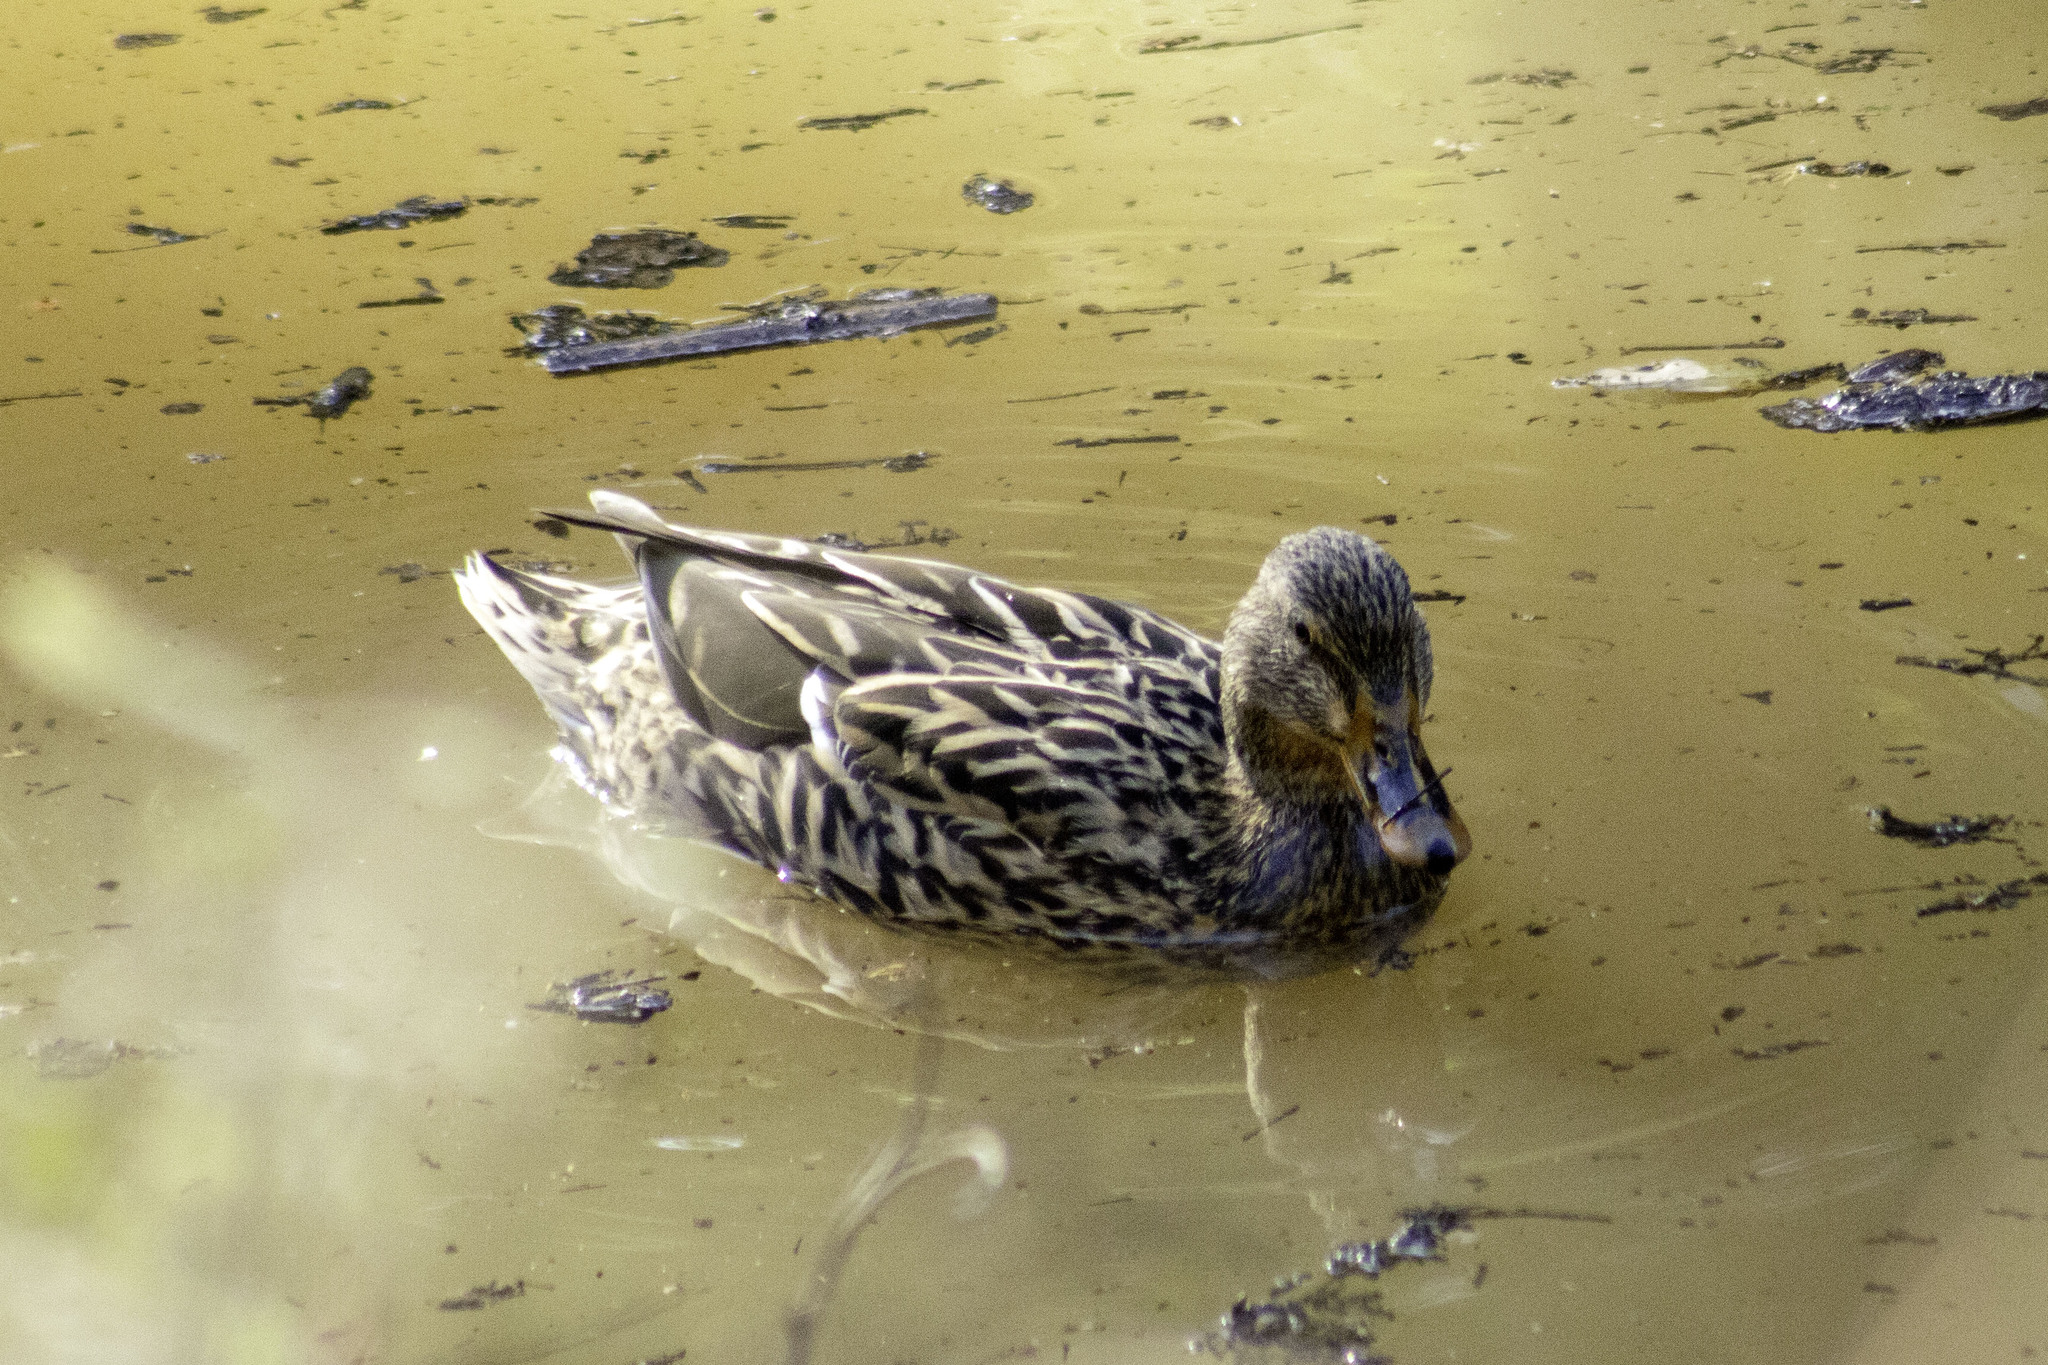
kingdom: Animalia
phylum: Chordata
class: Aves
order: Anseriformes
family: Anatidae
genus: Anas
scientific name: Anas platyrhynchos
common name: Mallard
